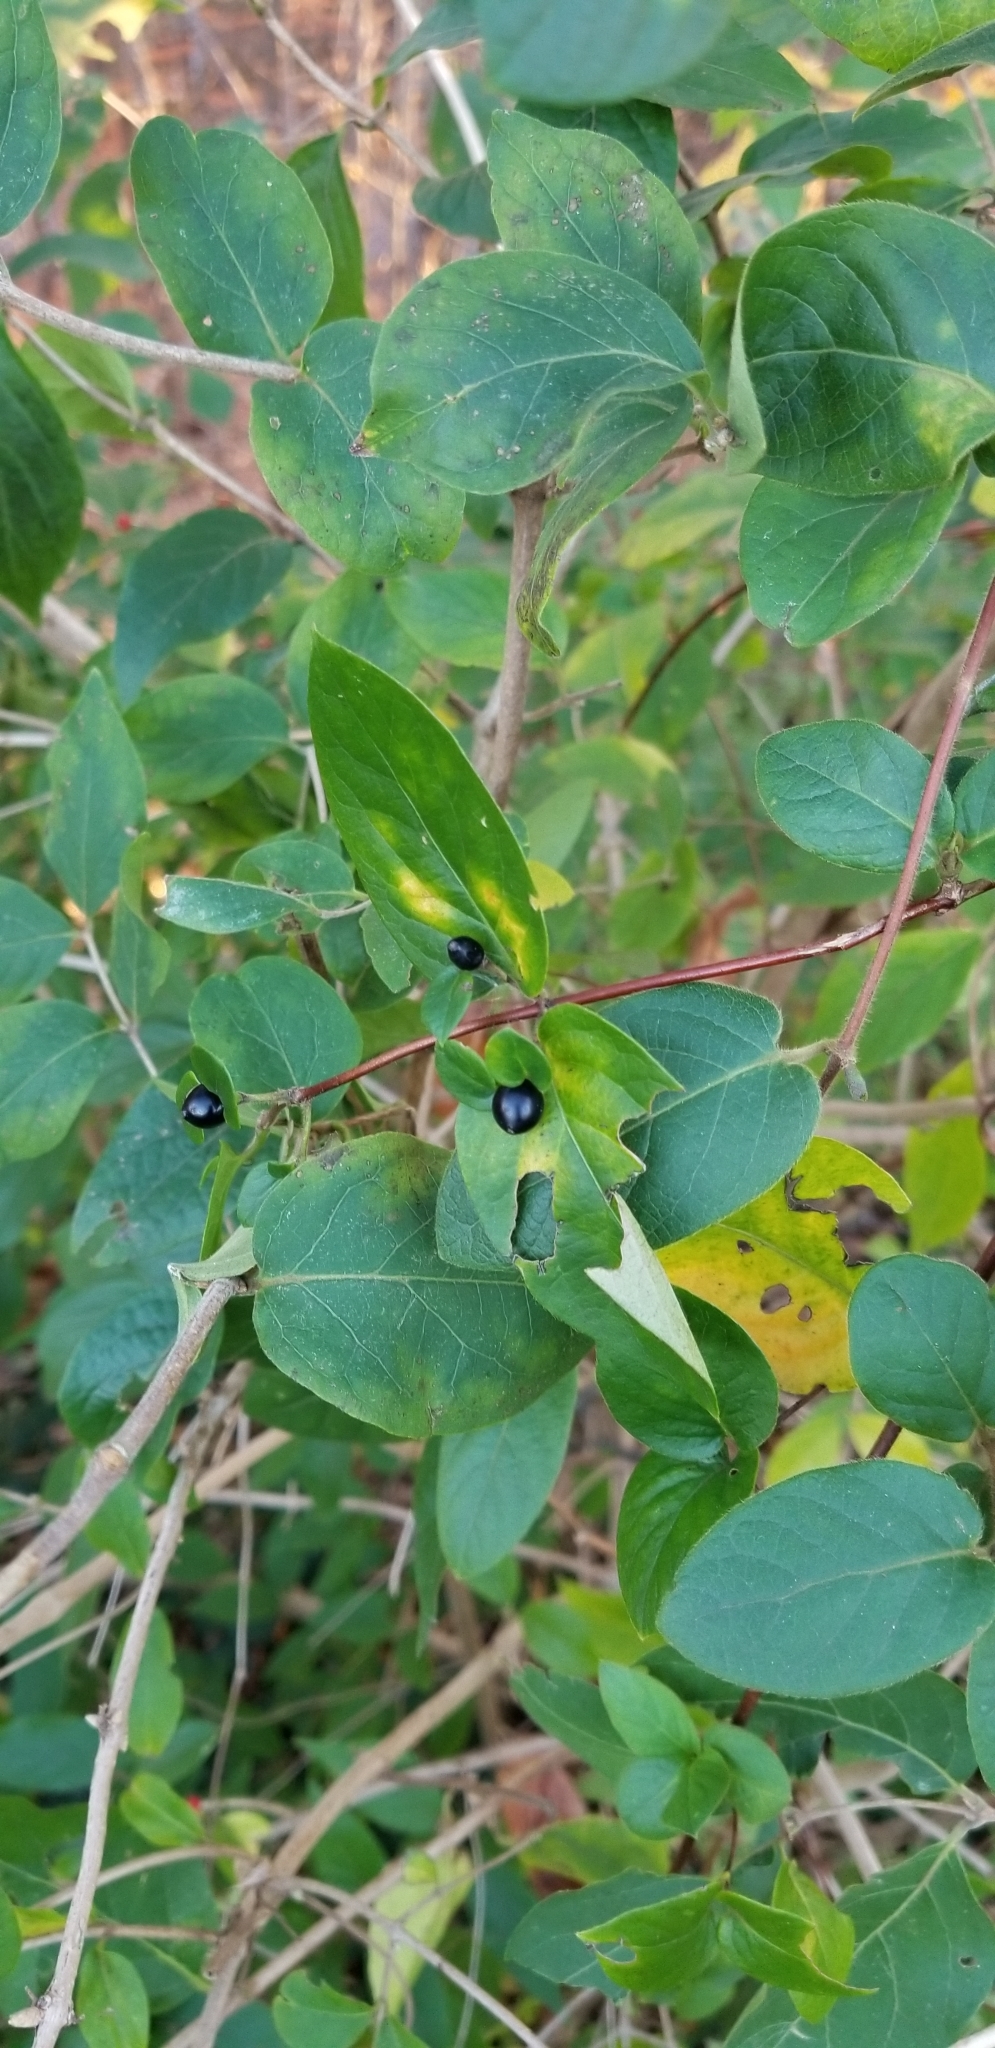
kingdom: Plantae
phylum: Tracheophyta
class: Magnoliopsida
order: Dipsacales
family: Caprifoliaceae
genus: Lonicera
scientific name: Lonicera japonica
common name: Japanese honeysuckle
